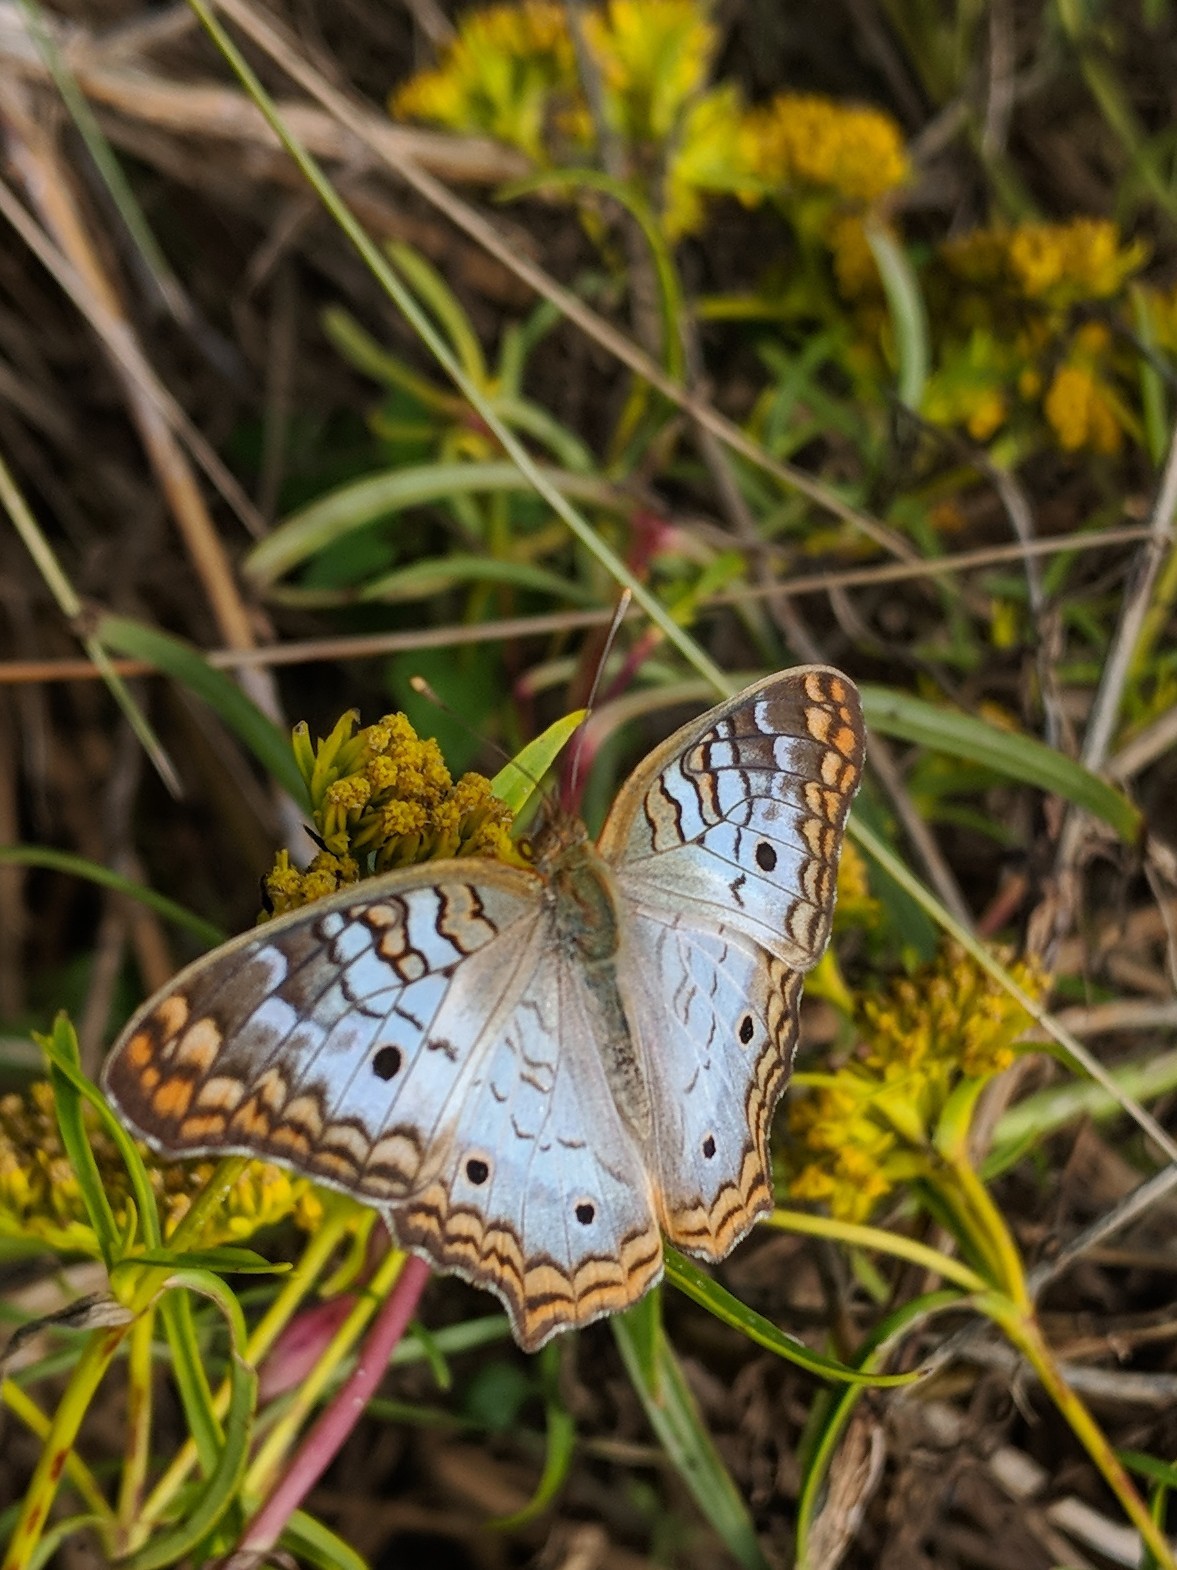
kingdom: Animalia
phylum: Arthropoda
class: Insecta
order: Lepidoptera
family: Nymphalidae
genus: Anartia
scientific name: Anartia jatrophae
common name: White peacock
